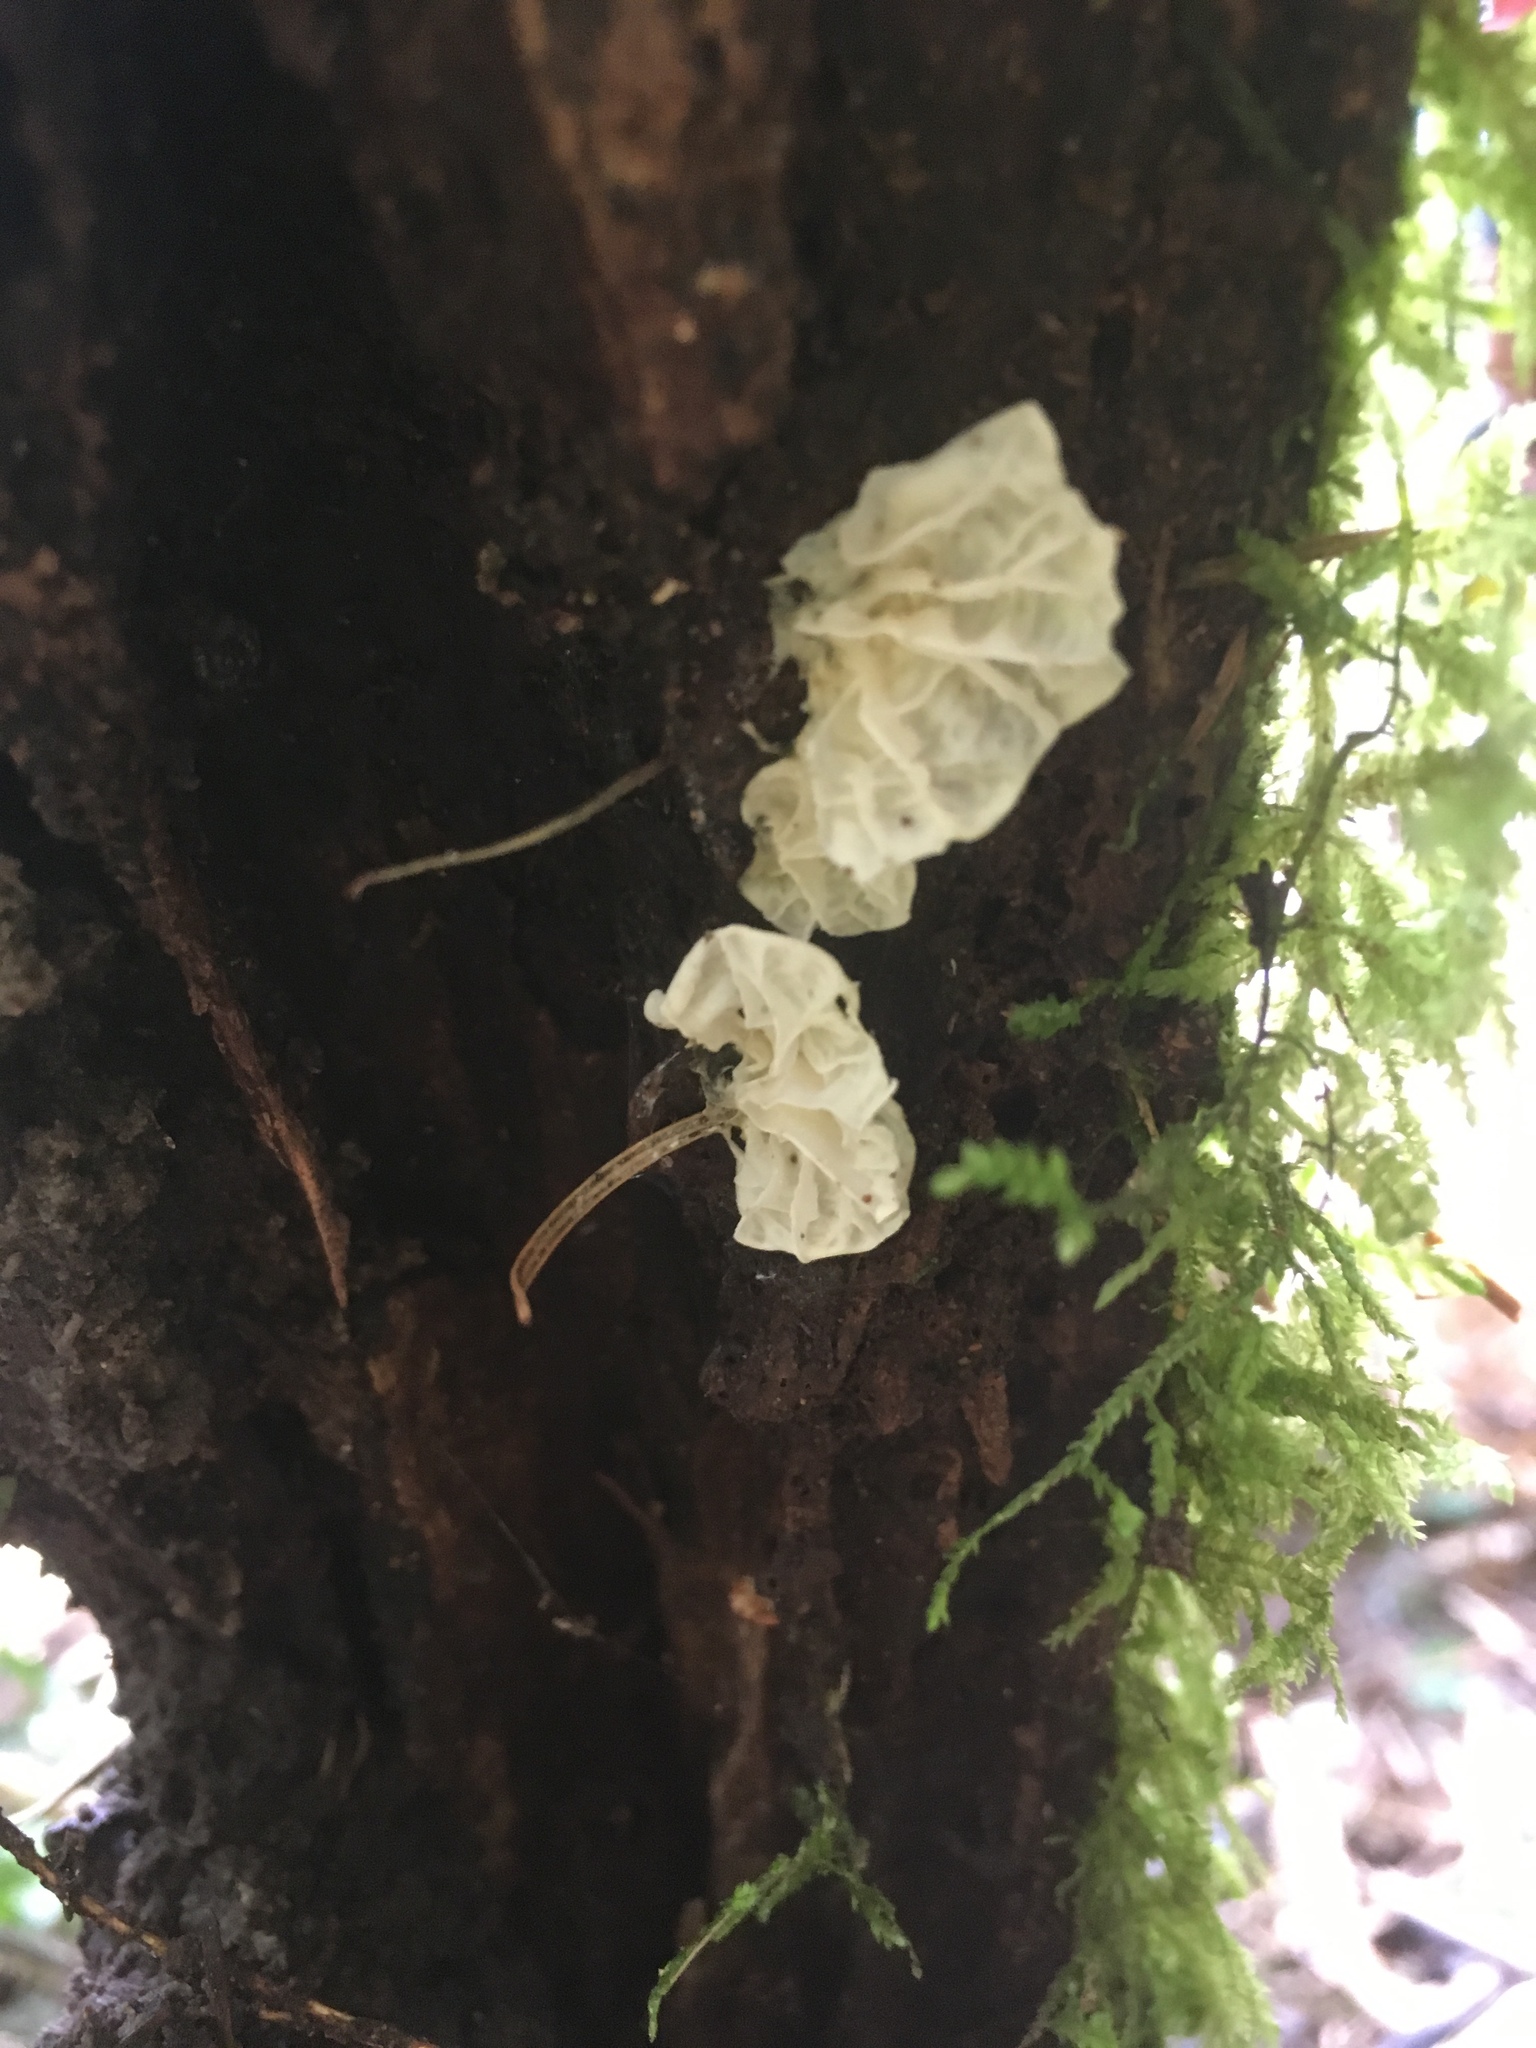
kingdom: Fungi
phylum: Basidiomycota
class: Agaricomycetes
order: Agaricales
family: Marasmiaceae
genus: Campanella
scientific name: Campanella tristis
